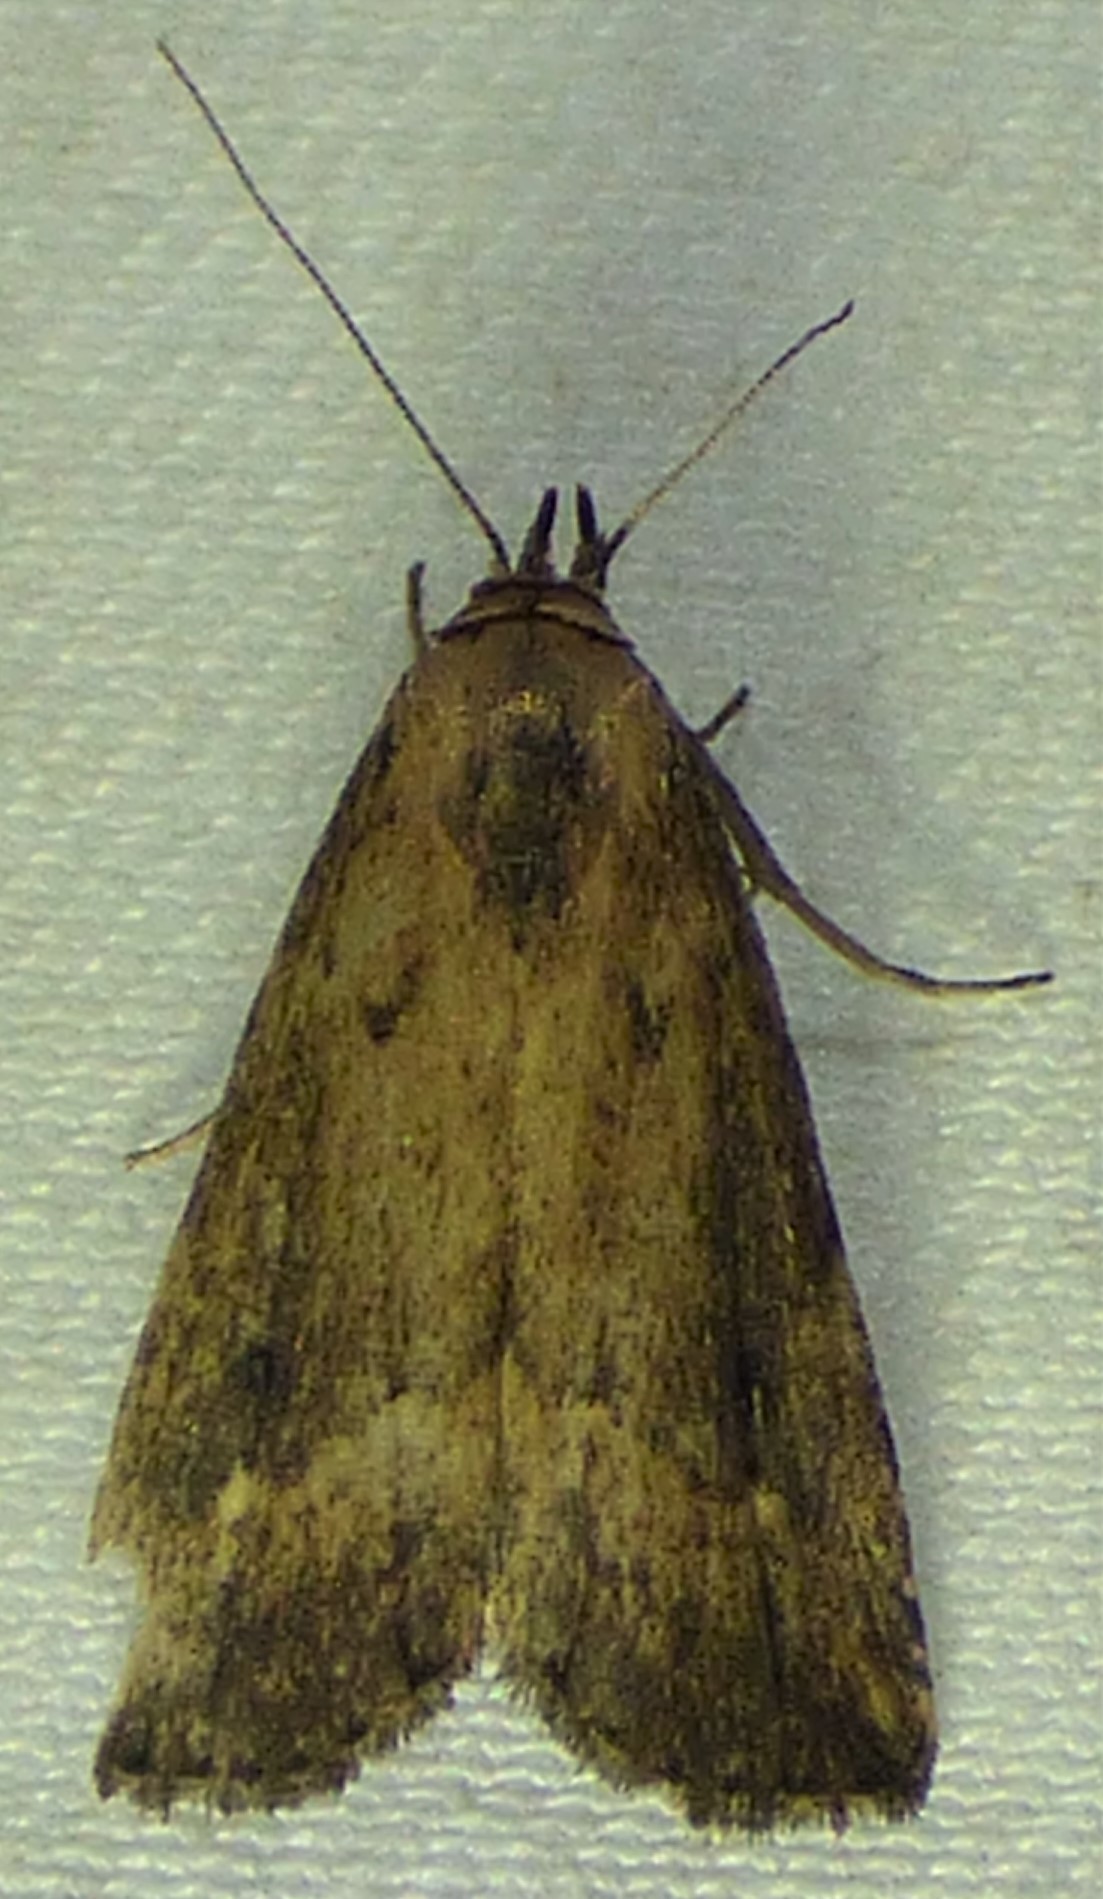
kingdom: Animalia
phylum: Arthropoda
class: Insecta
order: Lepidoptera
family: Erebidae
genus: Schrankia
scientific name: Schrankia
